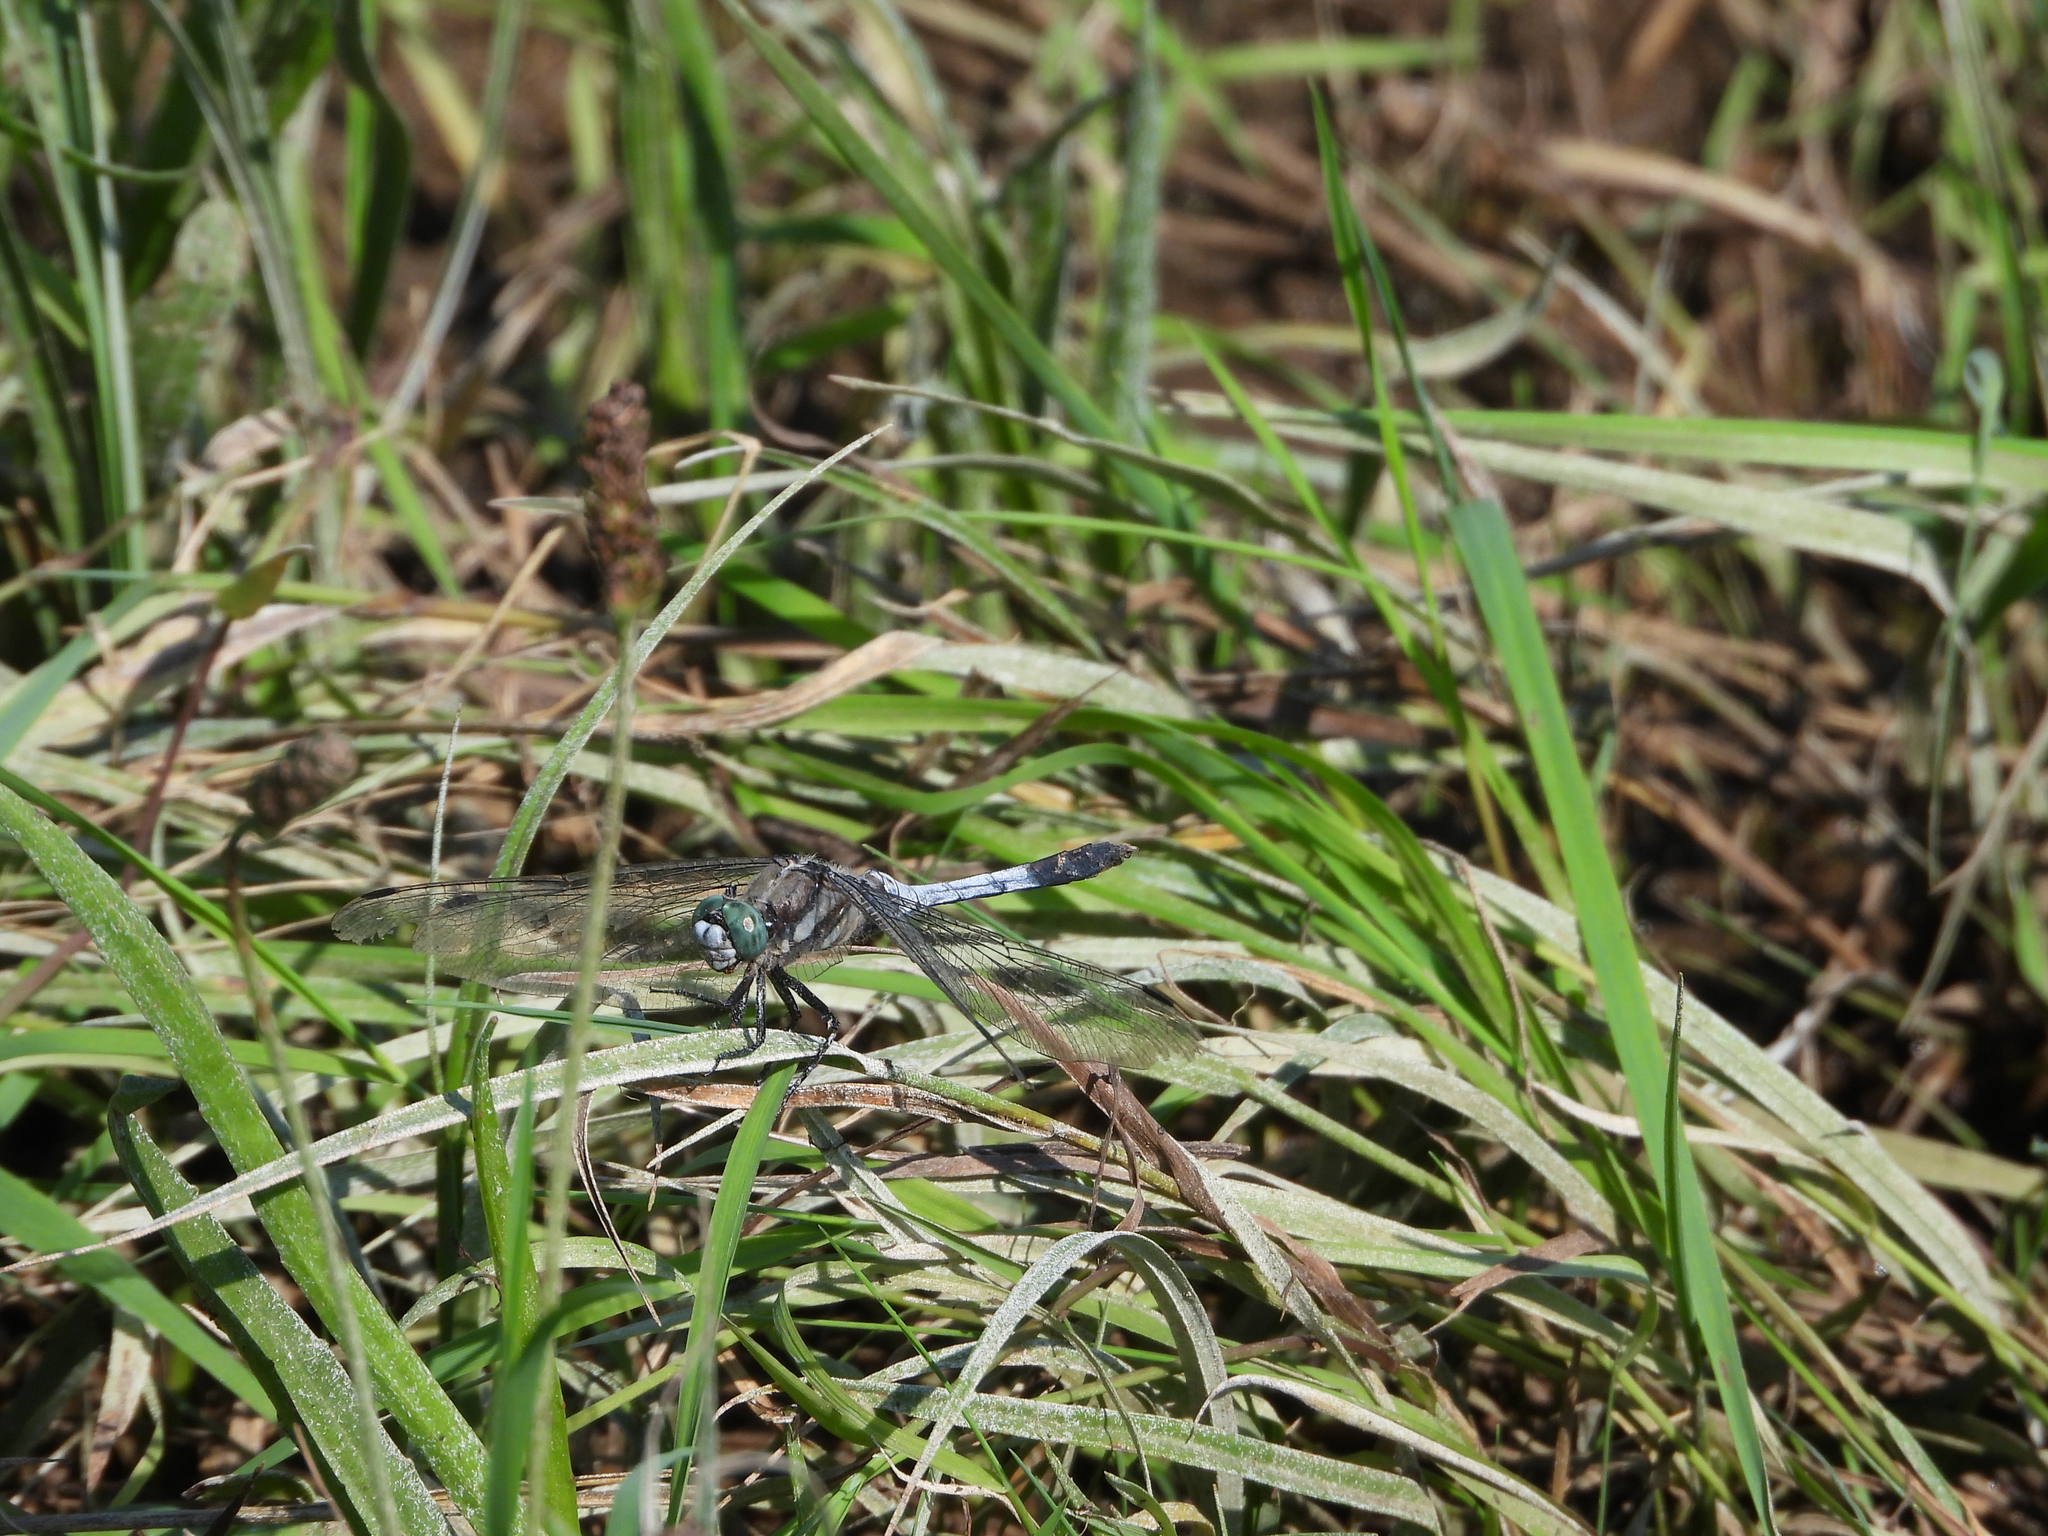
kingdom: Animalia
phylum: Arthropoda
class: Insecta
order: Odonata
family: Libellulidae
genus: Orthetrum
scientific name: Orthetrum albistylum
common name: White-tailed skimmer
